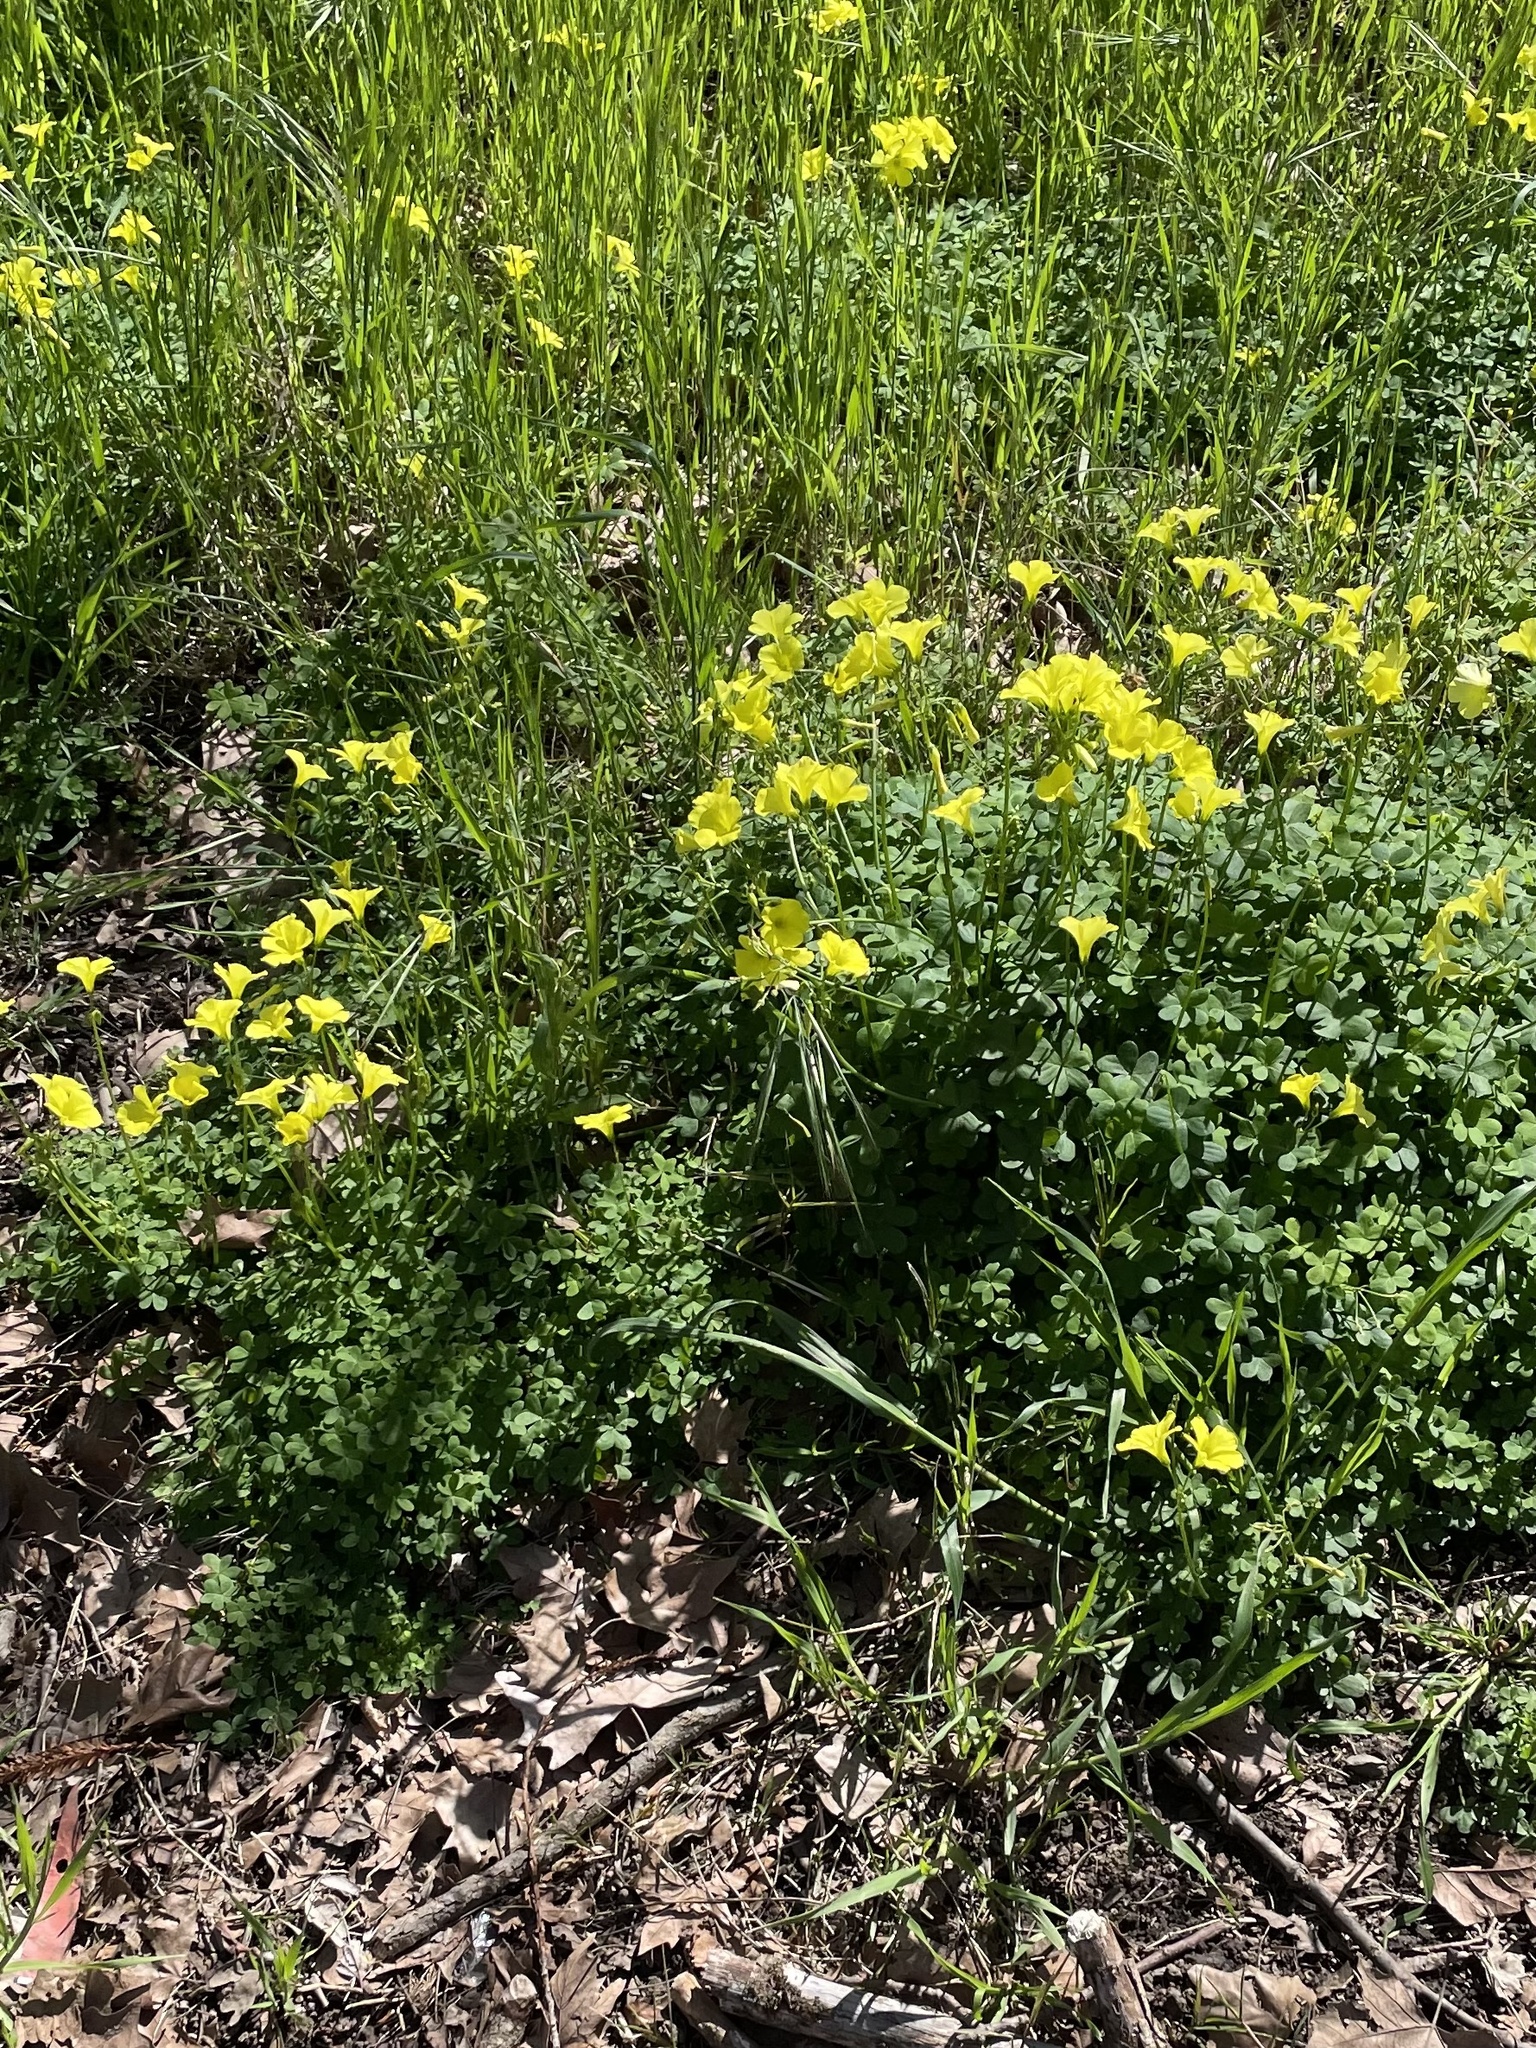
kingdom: Plantae
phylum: Tracheophyta
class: Magnoliopsida
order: Oxalidales
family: Oxalidaceae
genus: Oxalis
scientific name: Oxalis pes-caprae
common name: Bermuda-buttercup
